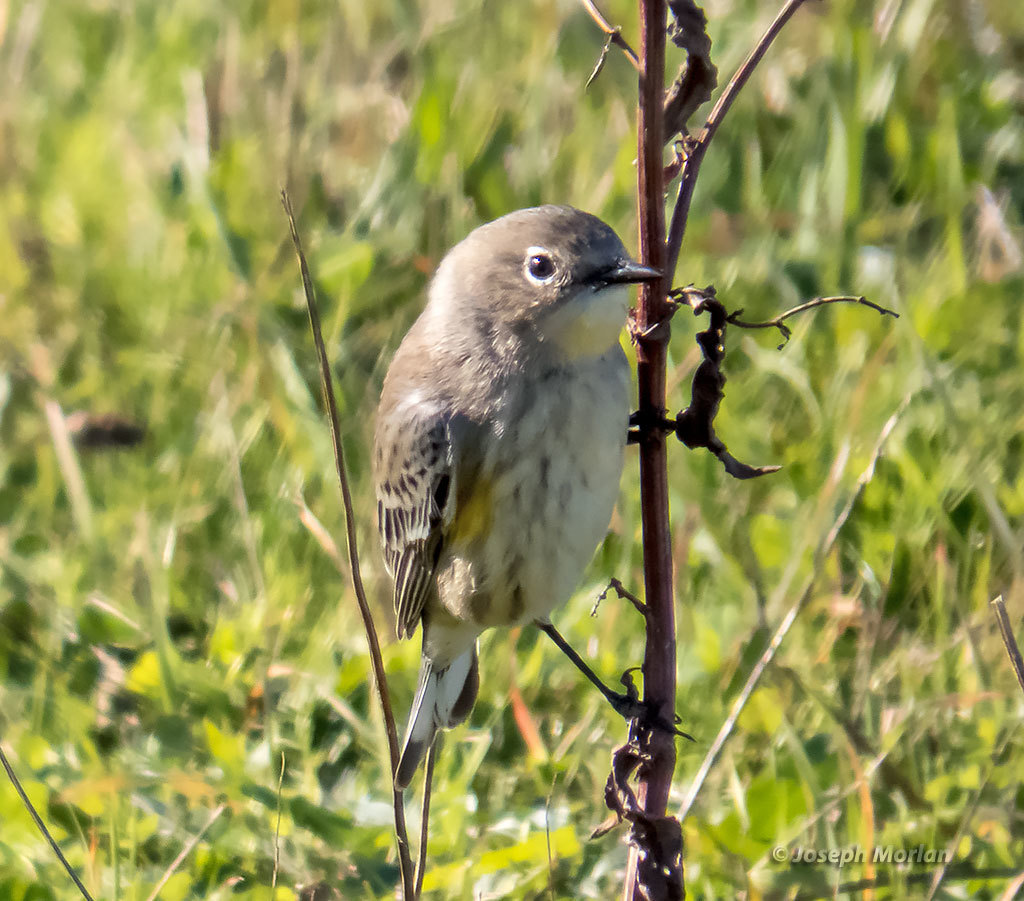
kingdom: Animalia
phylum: Chordata
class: Aves
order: Passeriformes
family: Parulidae
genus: Setophaga
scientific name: Setophaga coronata
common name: Myrtle warbler
